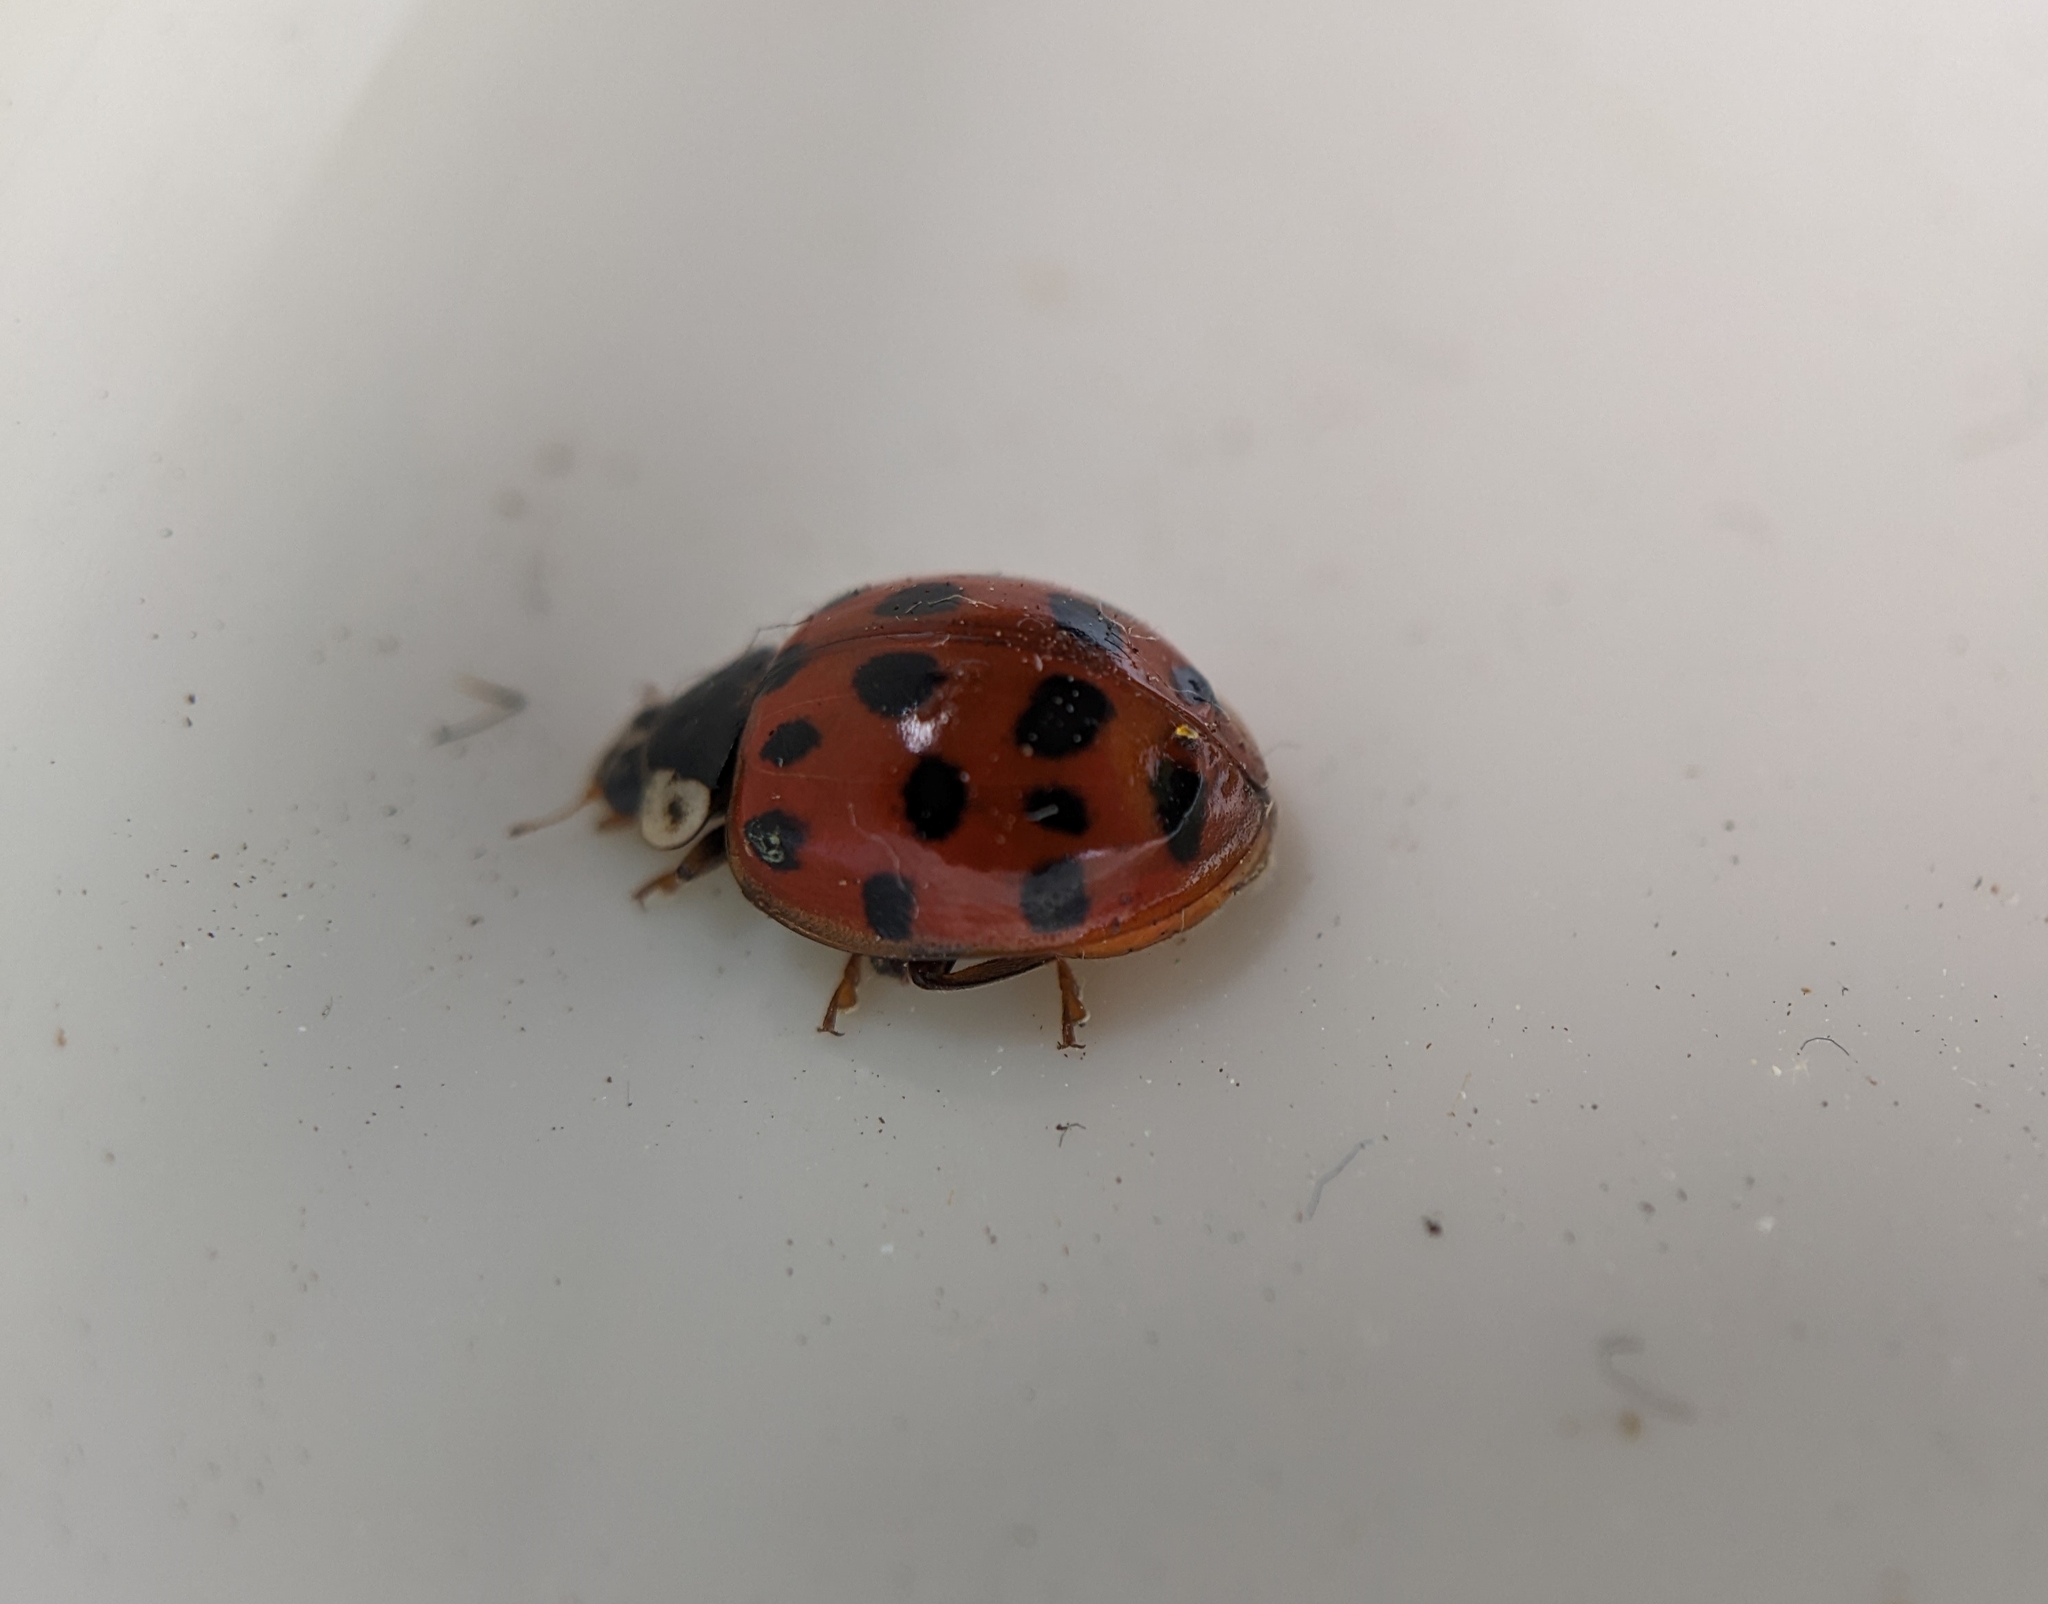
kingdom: Animalia
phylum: Arthropoda
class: Insecta
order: Coleoptera
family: Coccinellidae
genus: Harmonia
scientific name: Harmonia axyridis
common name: Harlequin ladybird
